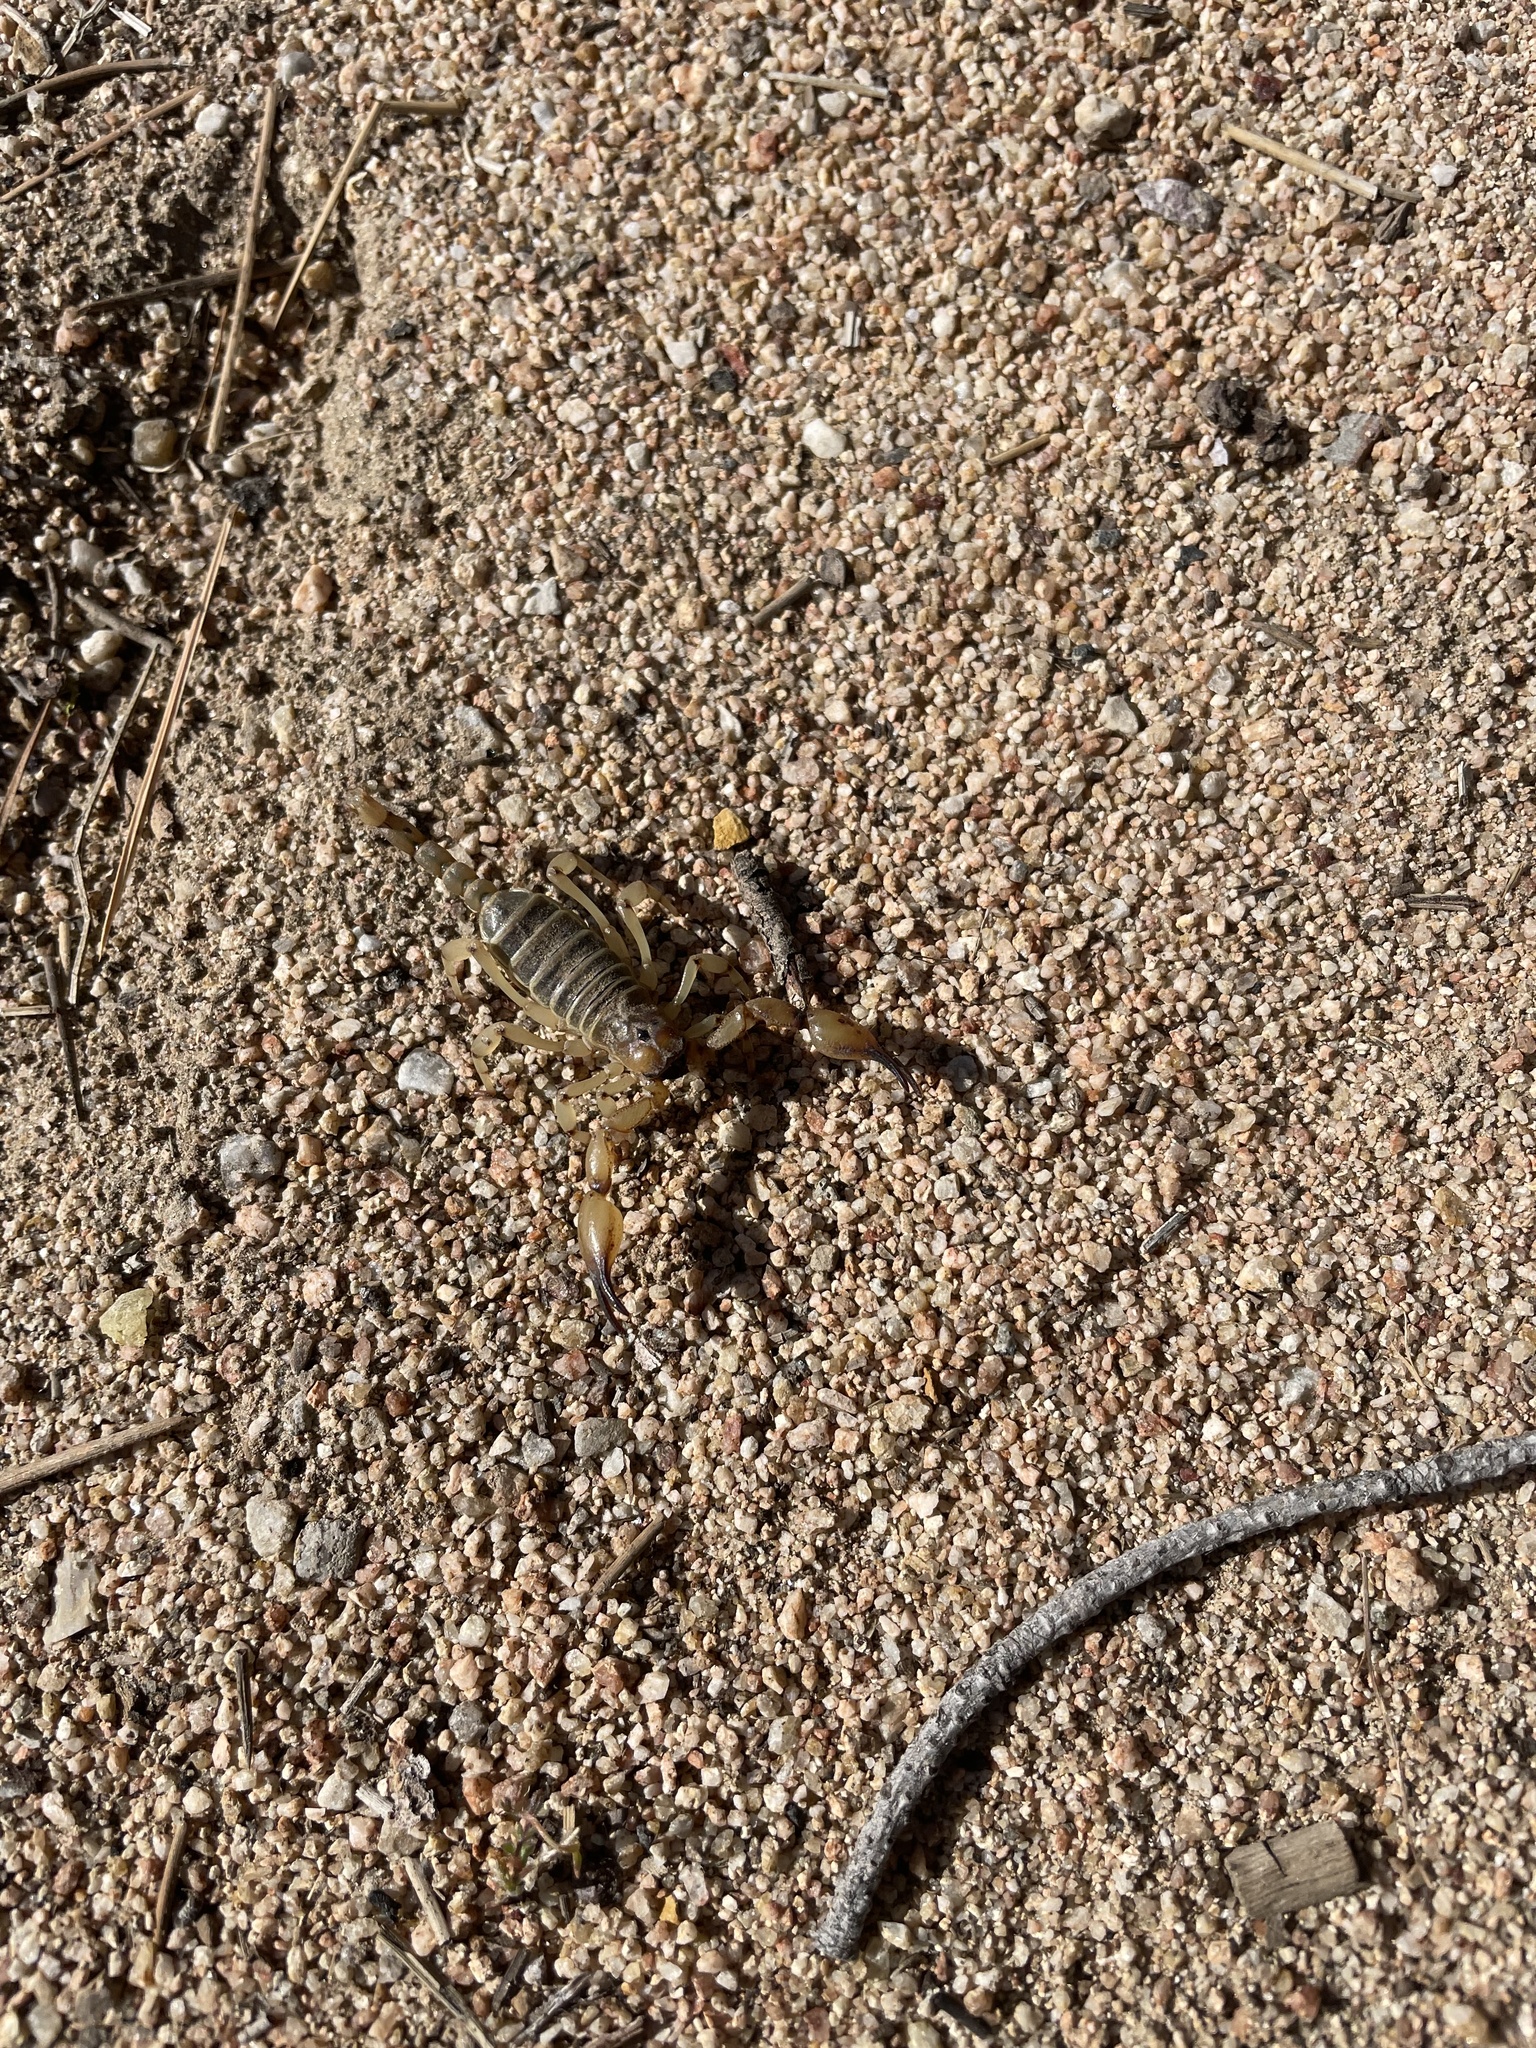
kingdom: Animalia
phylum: Arthropoda
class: Arachnida
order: Scorpiones
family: Chactidae
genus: Anuroctonus
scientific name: Anuroctonus pococki
